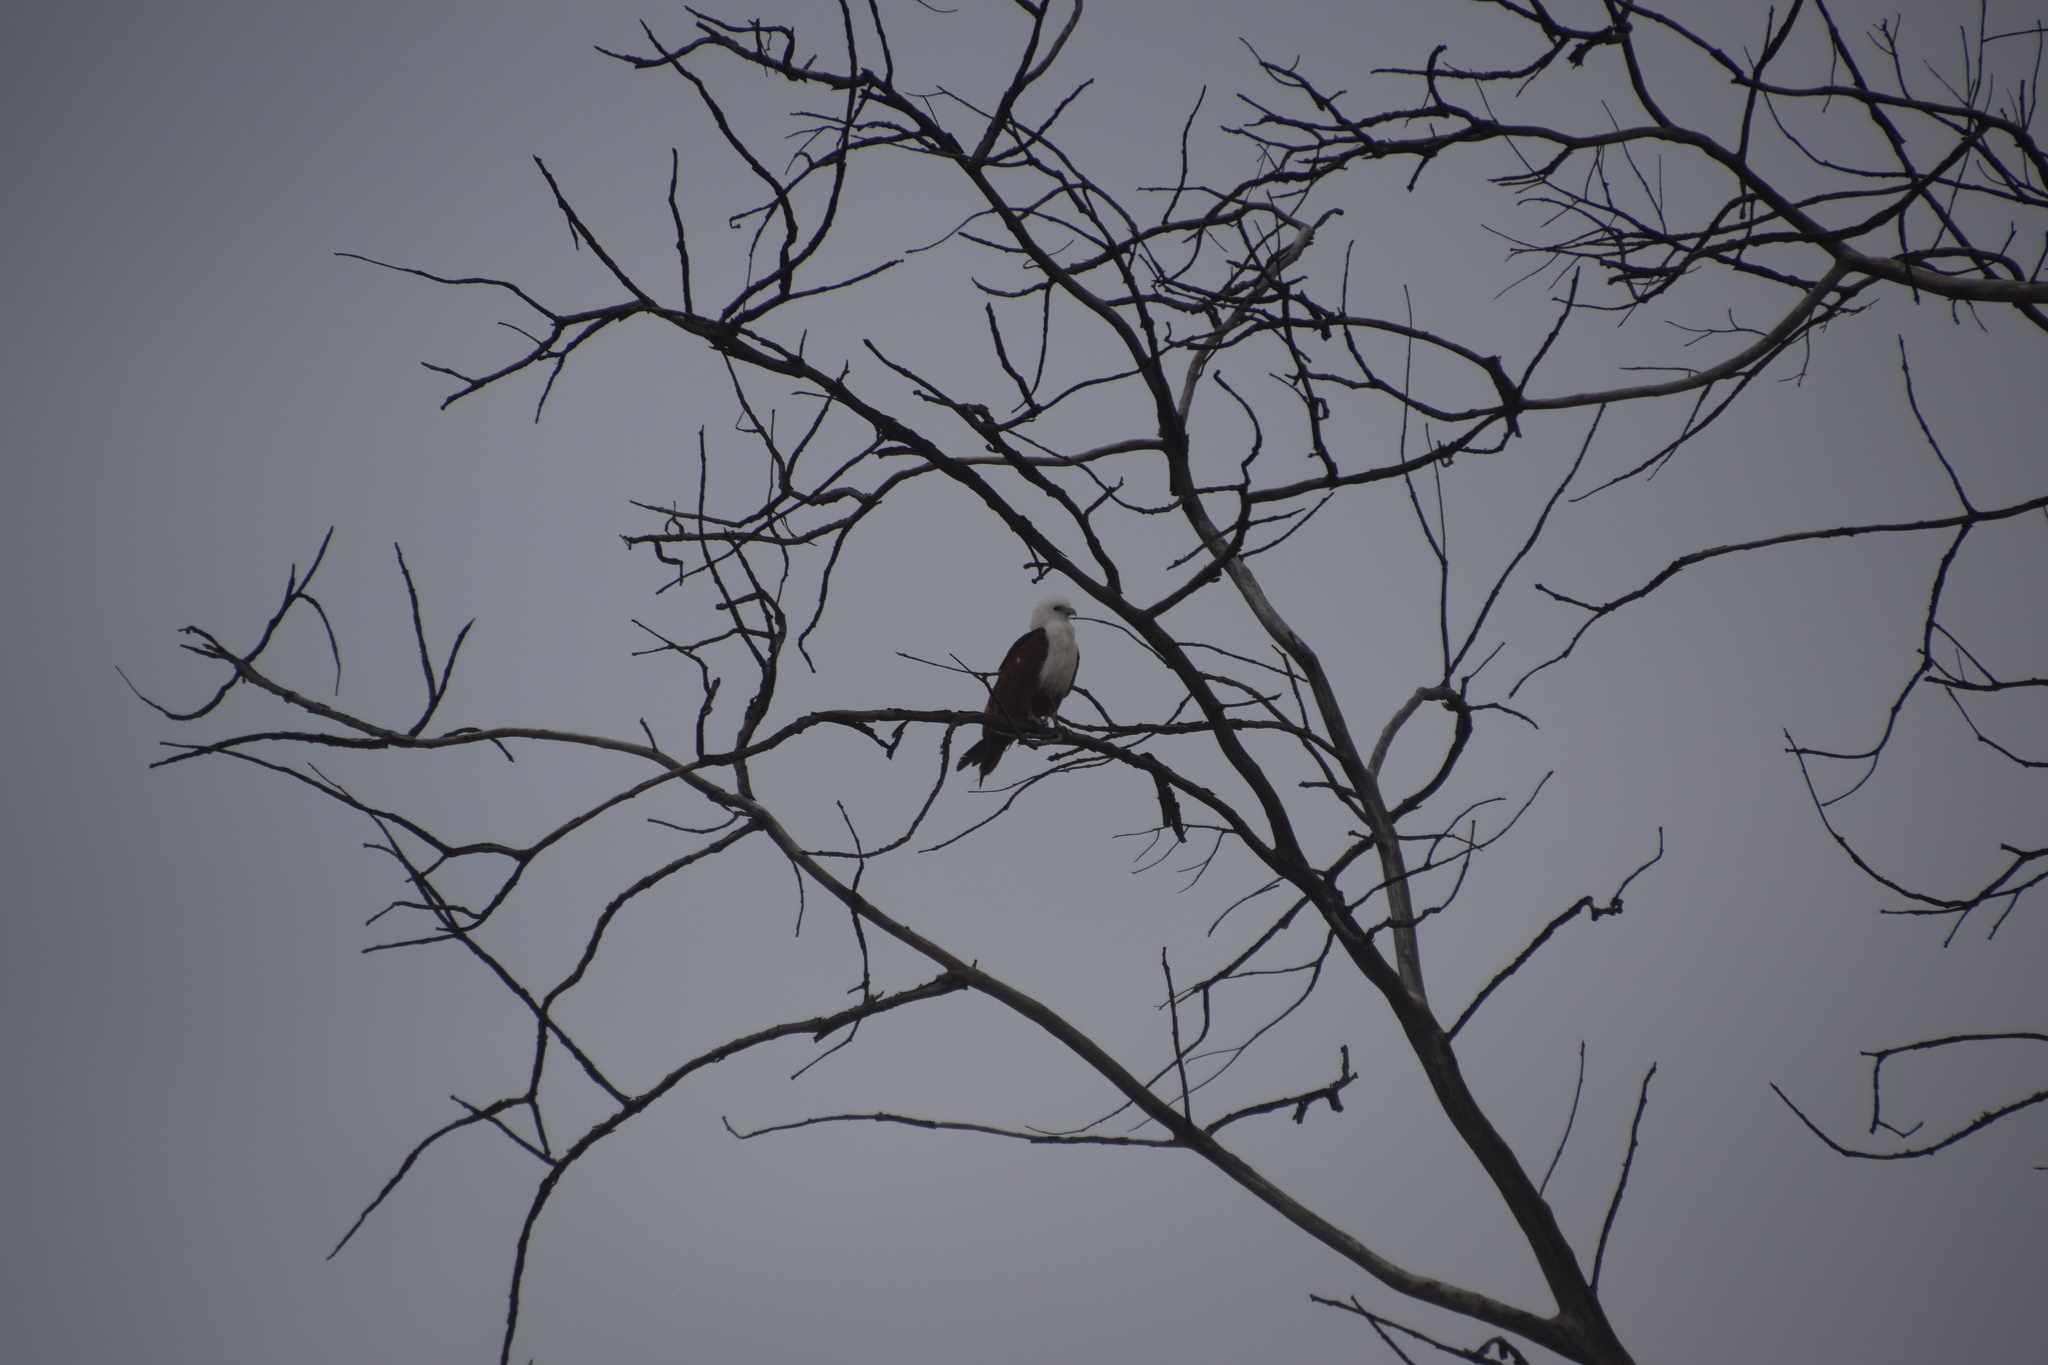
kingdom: Animalia
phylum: Chordata
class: Aves
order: Accipitriformes
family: Accipitridae
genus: Haliastur
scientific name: Haliastur indus
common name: Brahminy kite
